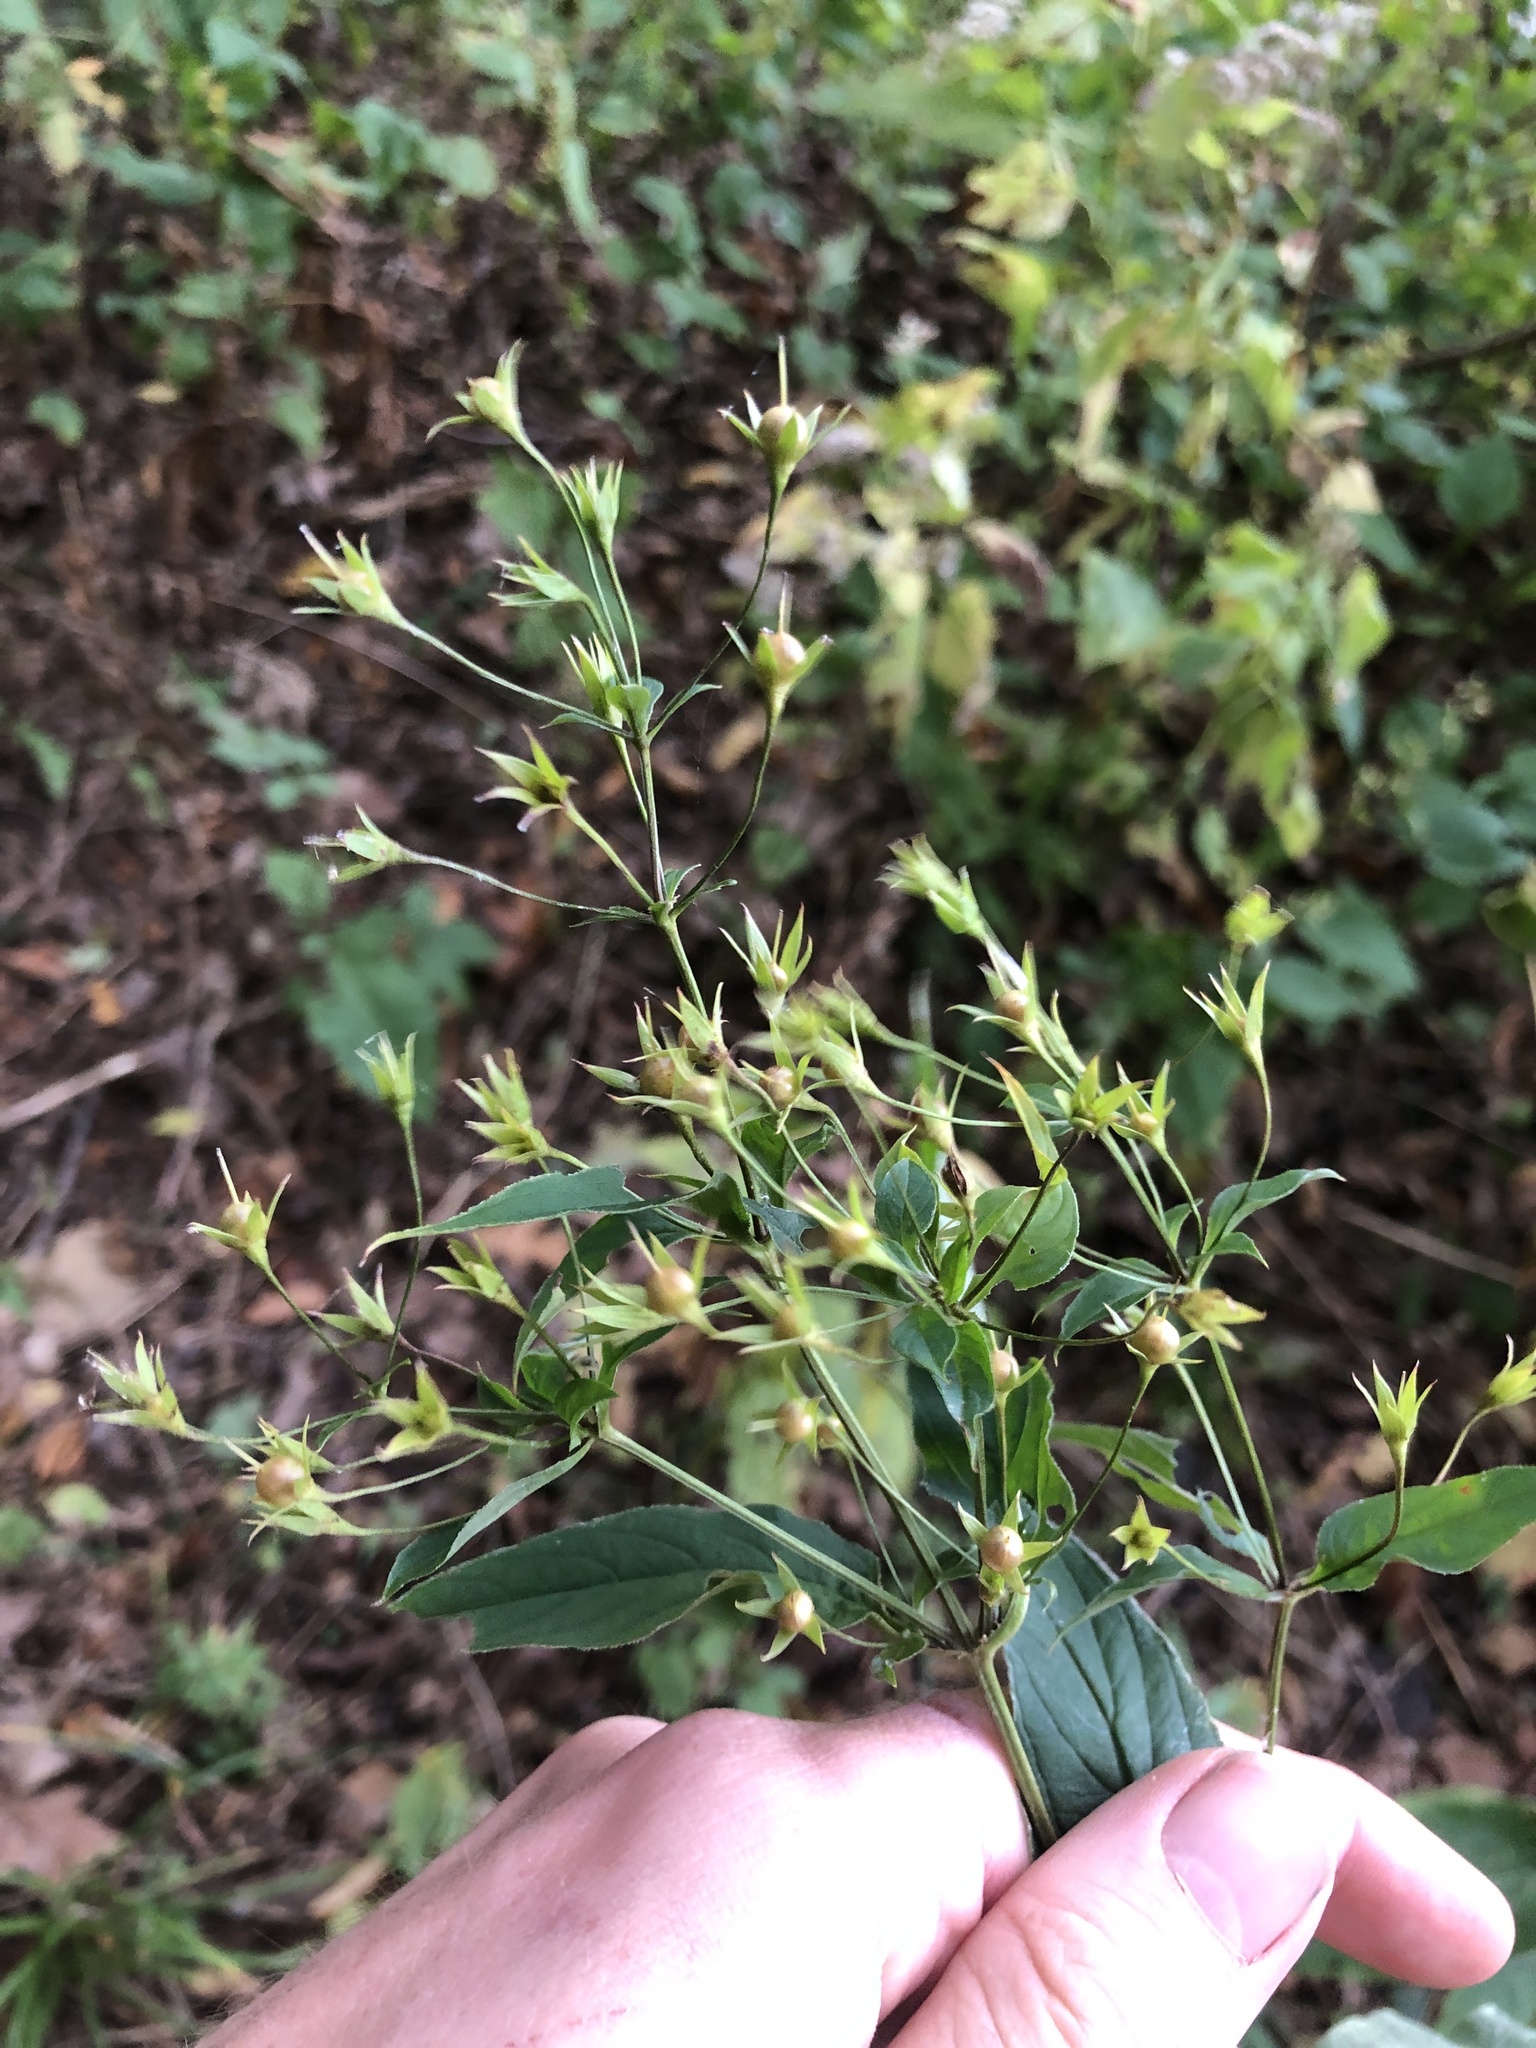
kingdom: Plantae
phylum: Tracheophyta
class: Magnoliopsida
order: Ericales
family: Primulaceae
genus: Lysimachia
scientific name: Lysimachia ciliata
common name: Fringed loosestrife
